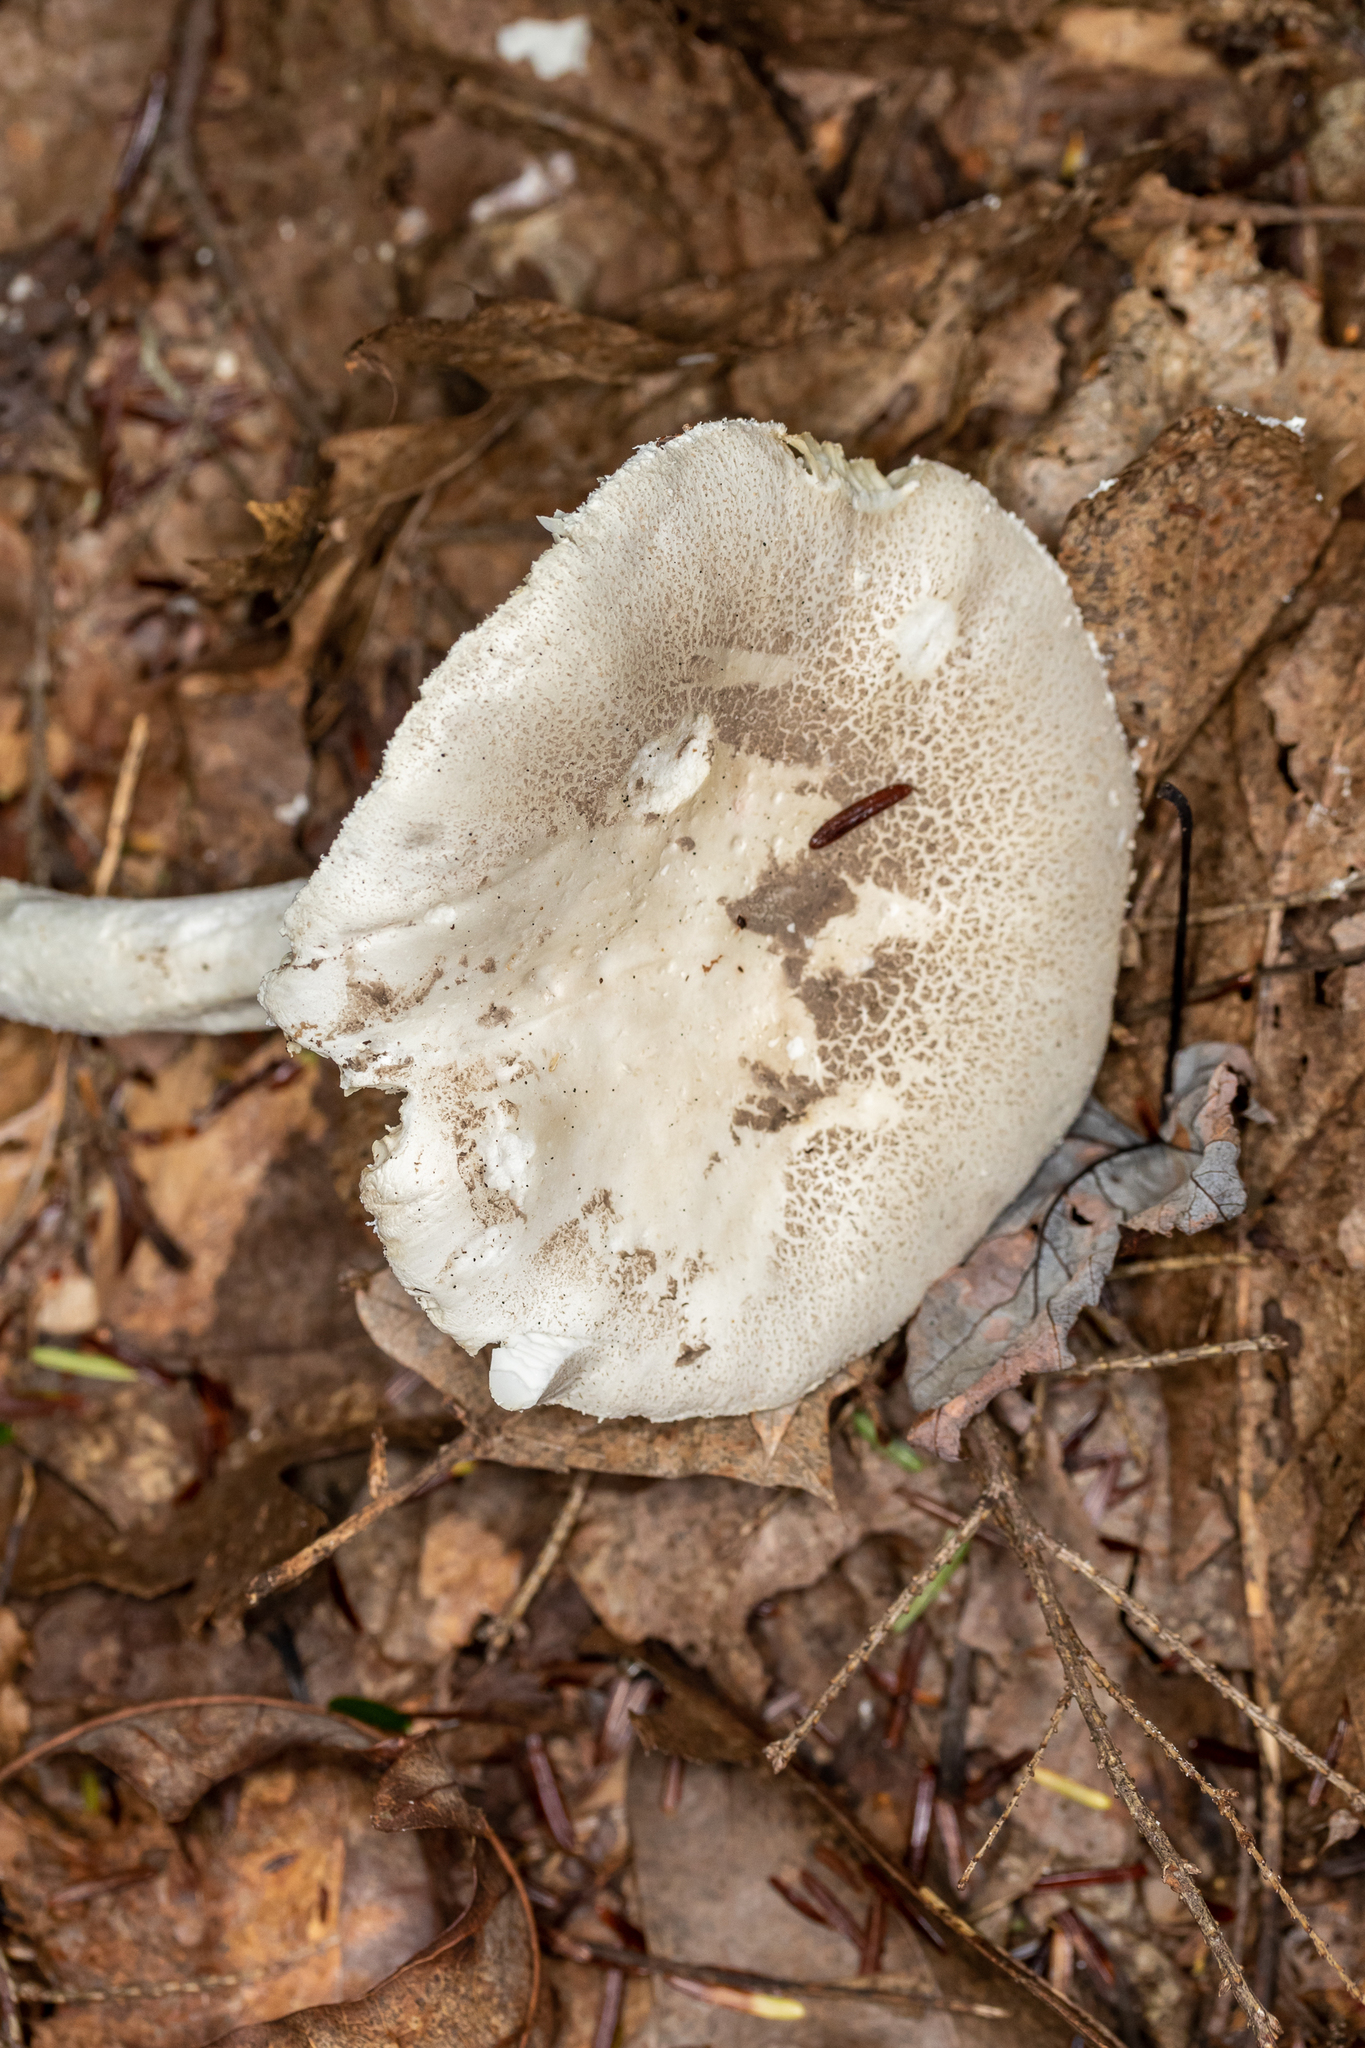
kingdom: Fungi
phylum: Basidiomycota
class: Agaricomycetes
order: Agaricales
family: Amanitaceae
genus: Amanita
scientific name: Amanita onusta
